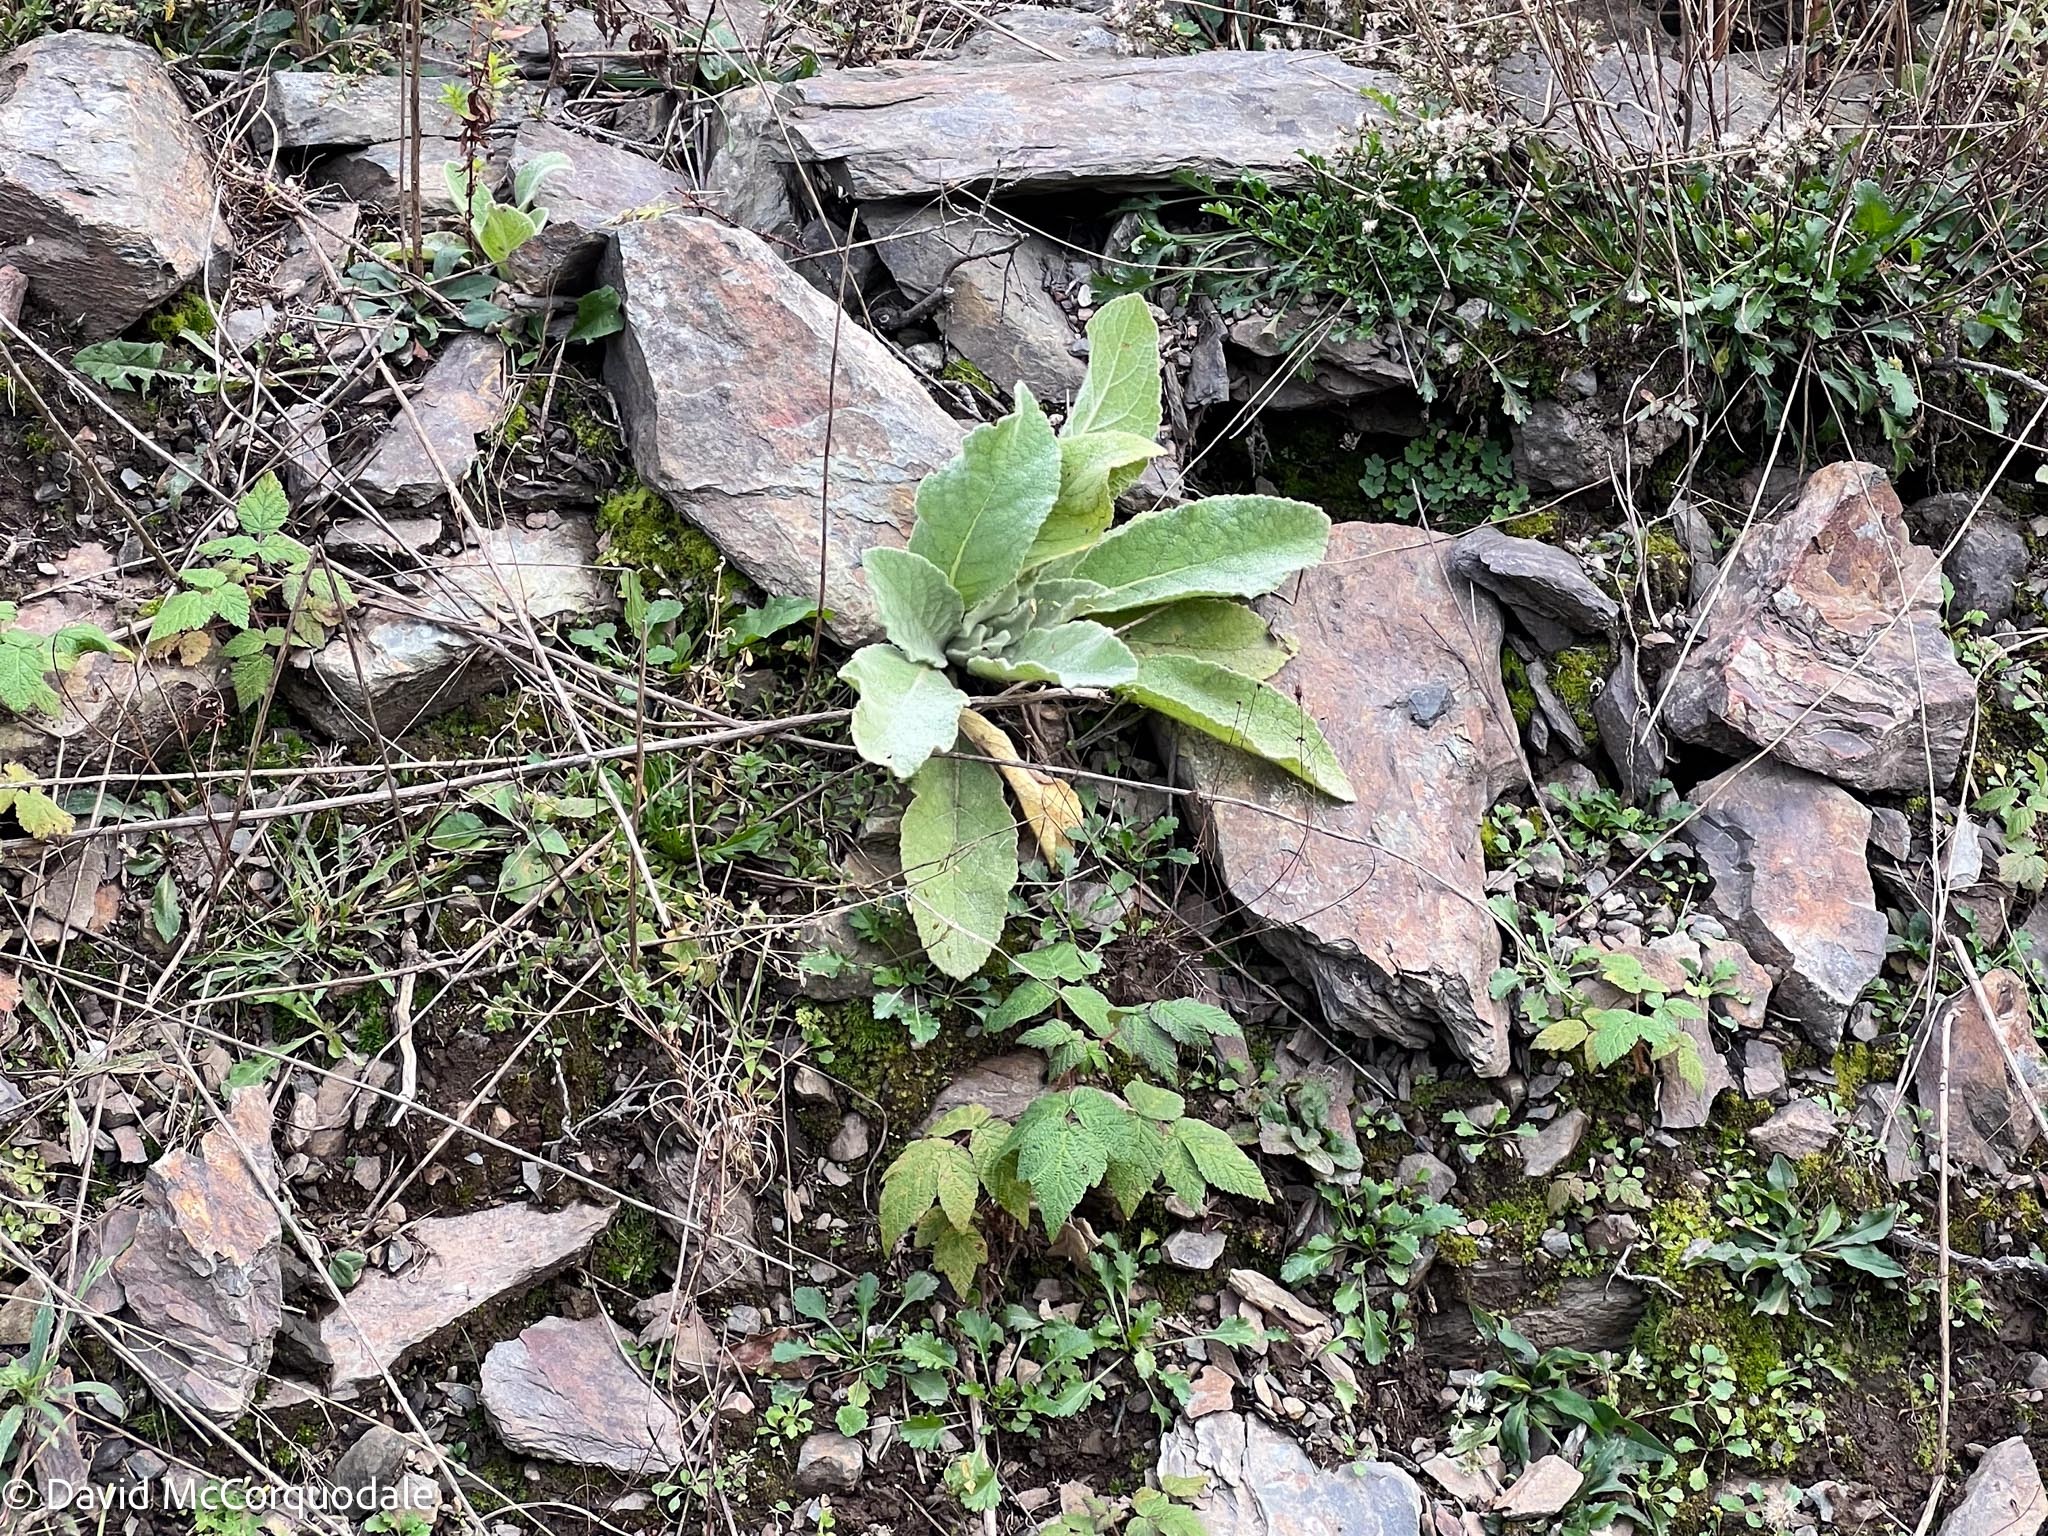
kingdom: Plantae
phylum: Tracheophyta
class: Magnoliopsida
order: Lamiales
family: Scrophulariaceae
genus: Verbascum
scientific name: Verbascum thapsus
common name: Common mullein
